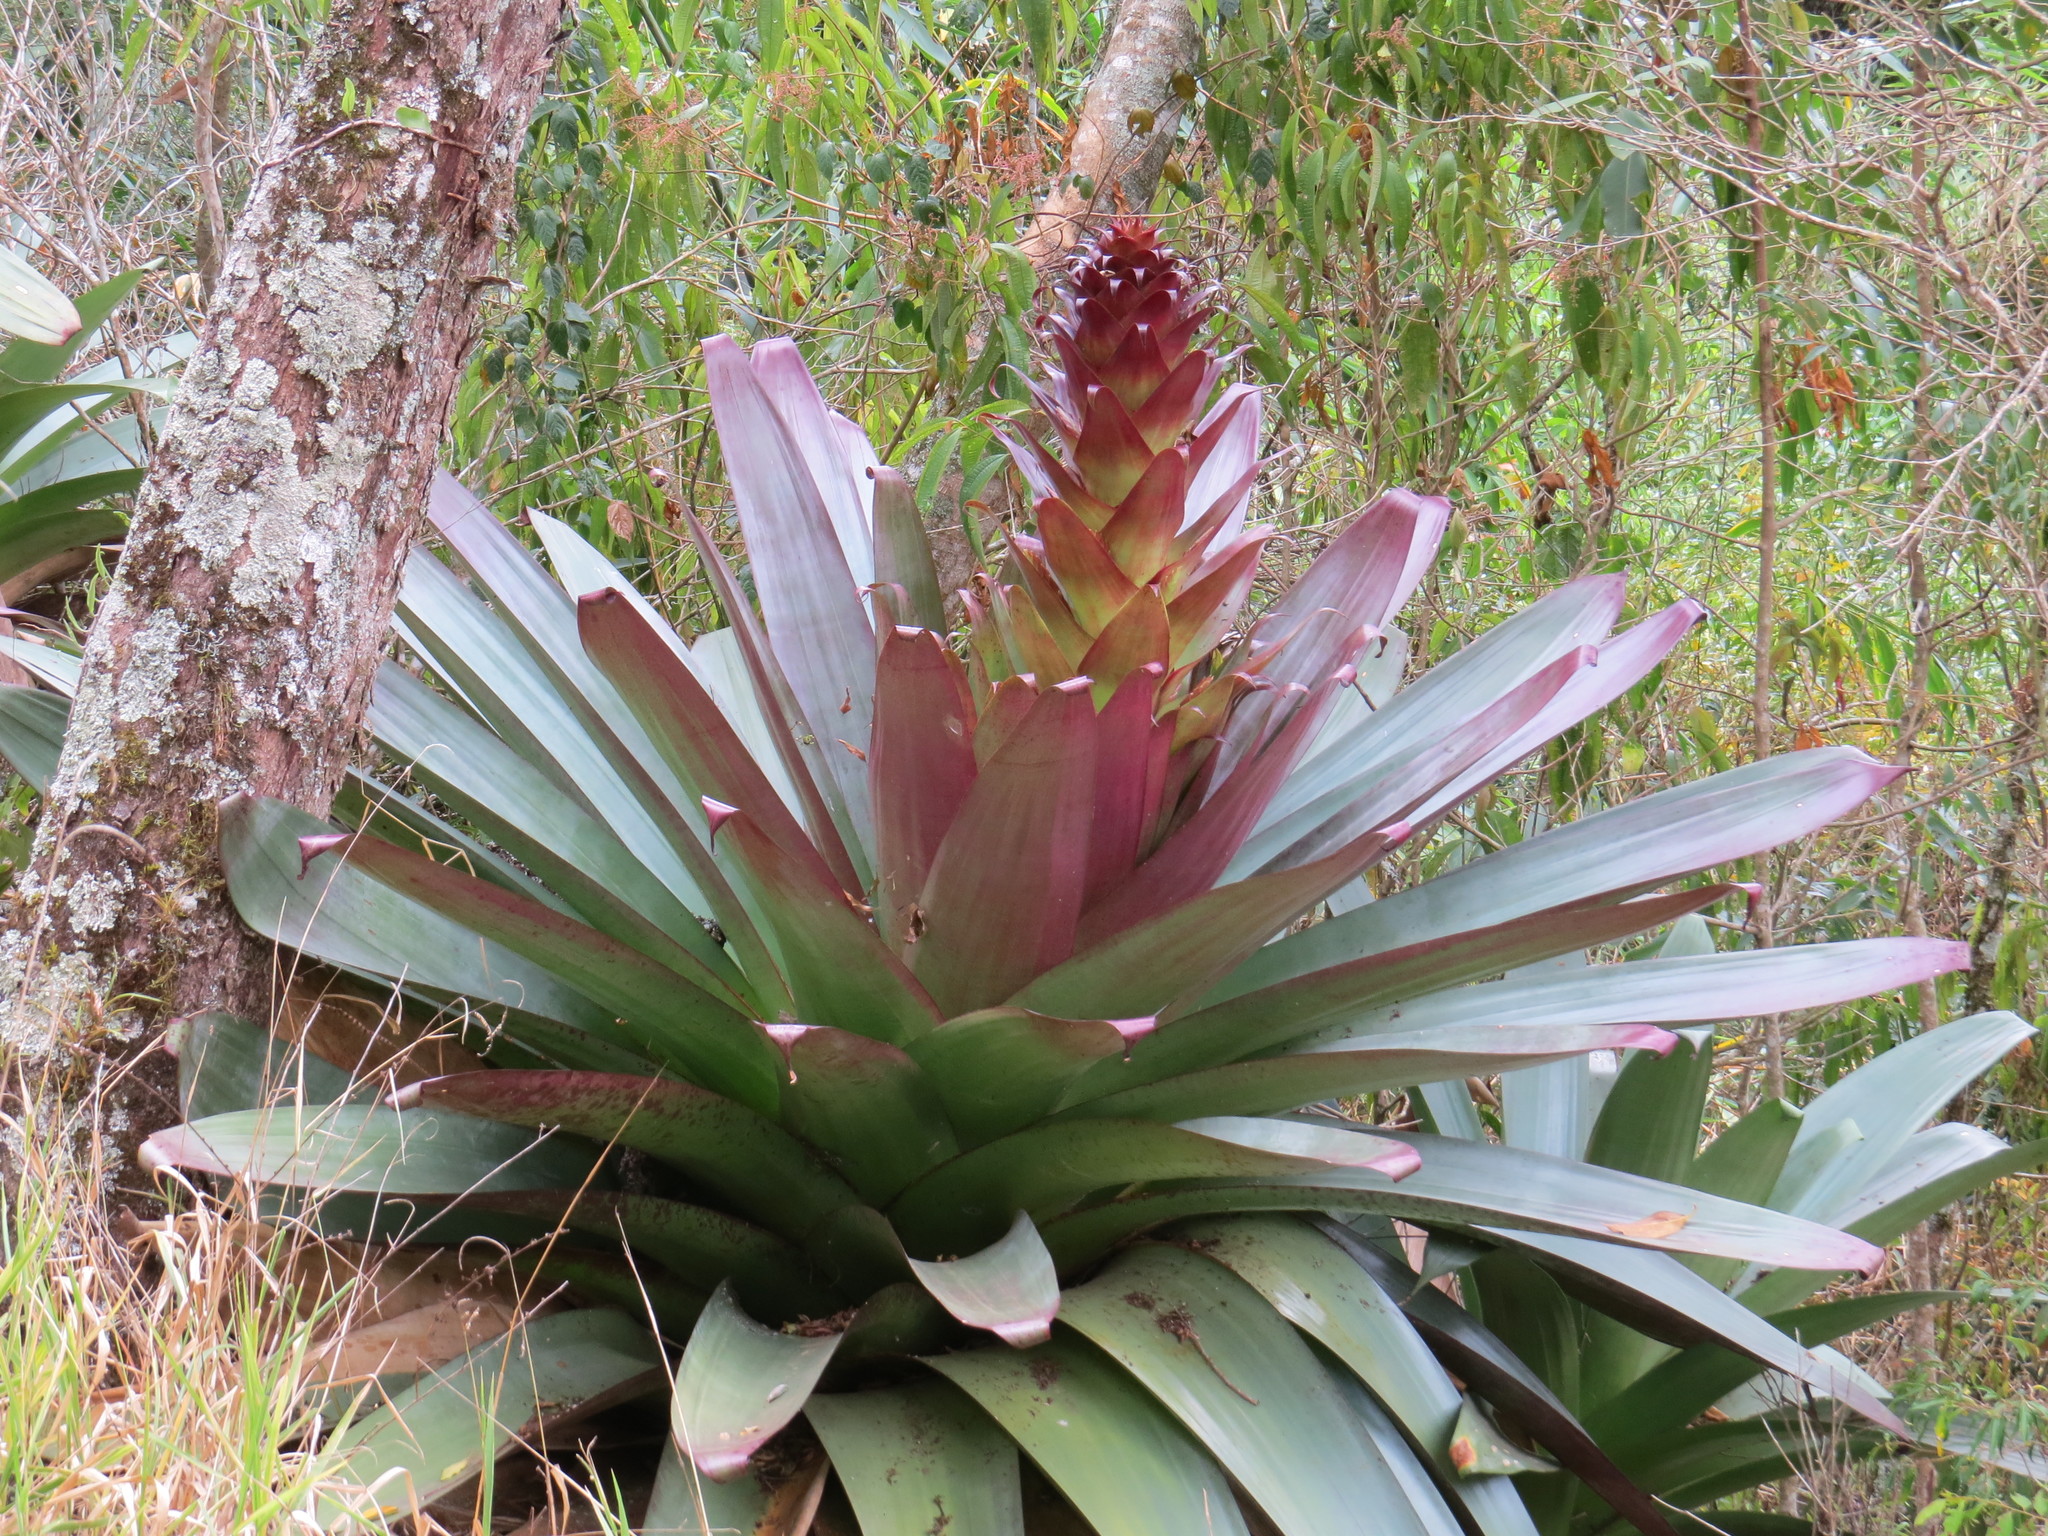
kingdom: Plantae
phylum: Tracheophyta
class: Liliopsida
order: Poales
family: Bromeliaceae
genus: Alcantarea
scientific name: Alcantarea imperialis
